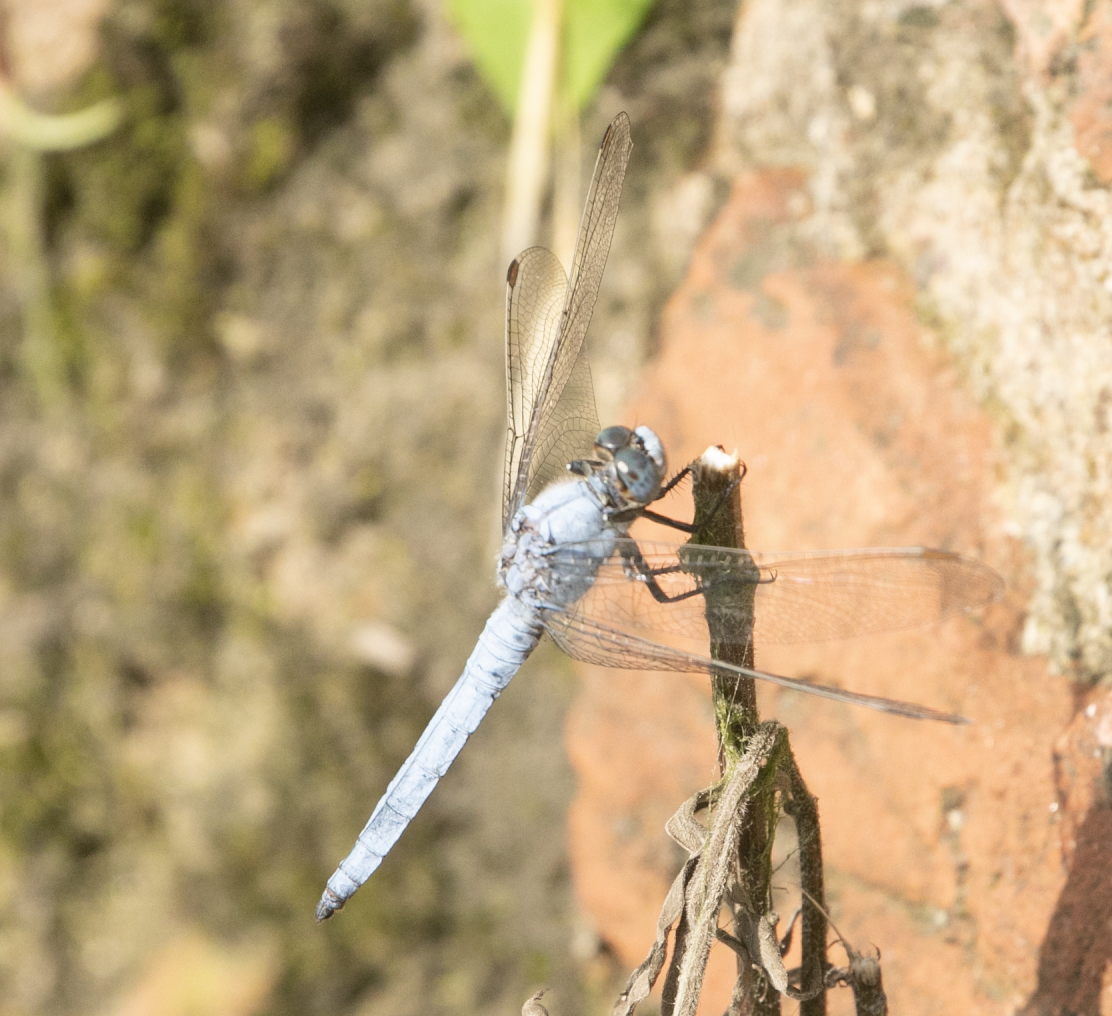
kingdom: Animalia
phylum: Arthropoda
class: Insecta
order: Odonata
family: Libellulidae
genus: Orthetrum
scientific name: Orthetrum brunneum
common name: Southern skimmer
